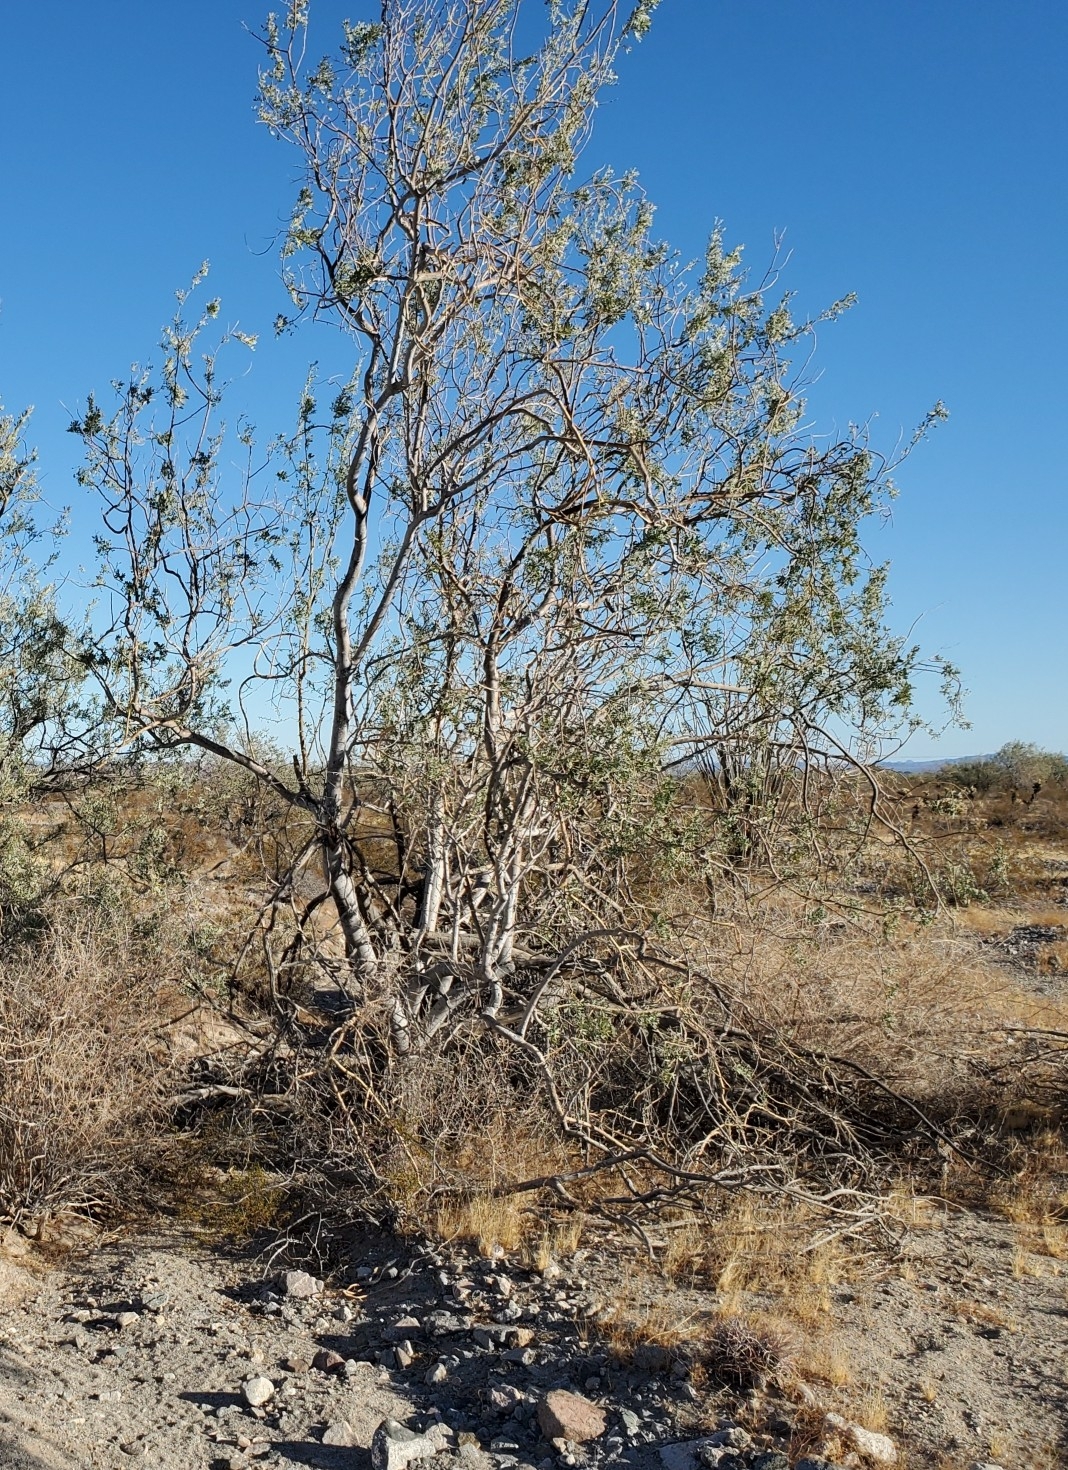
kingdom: Plantae
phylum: Tracheophyta
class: Magnoliopsida
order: Fabales
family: Fabaceae
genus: Olneya
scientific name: Olneya tesota
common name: Desert ironwood
